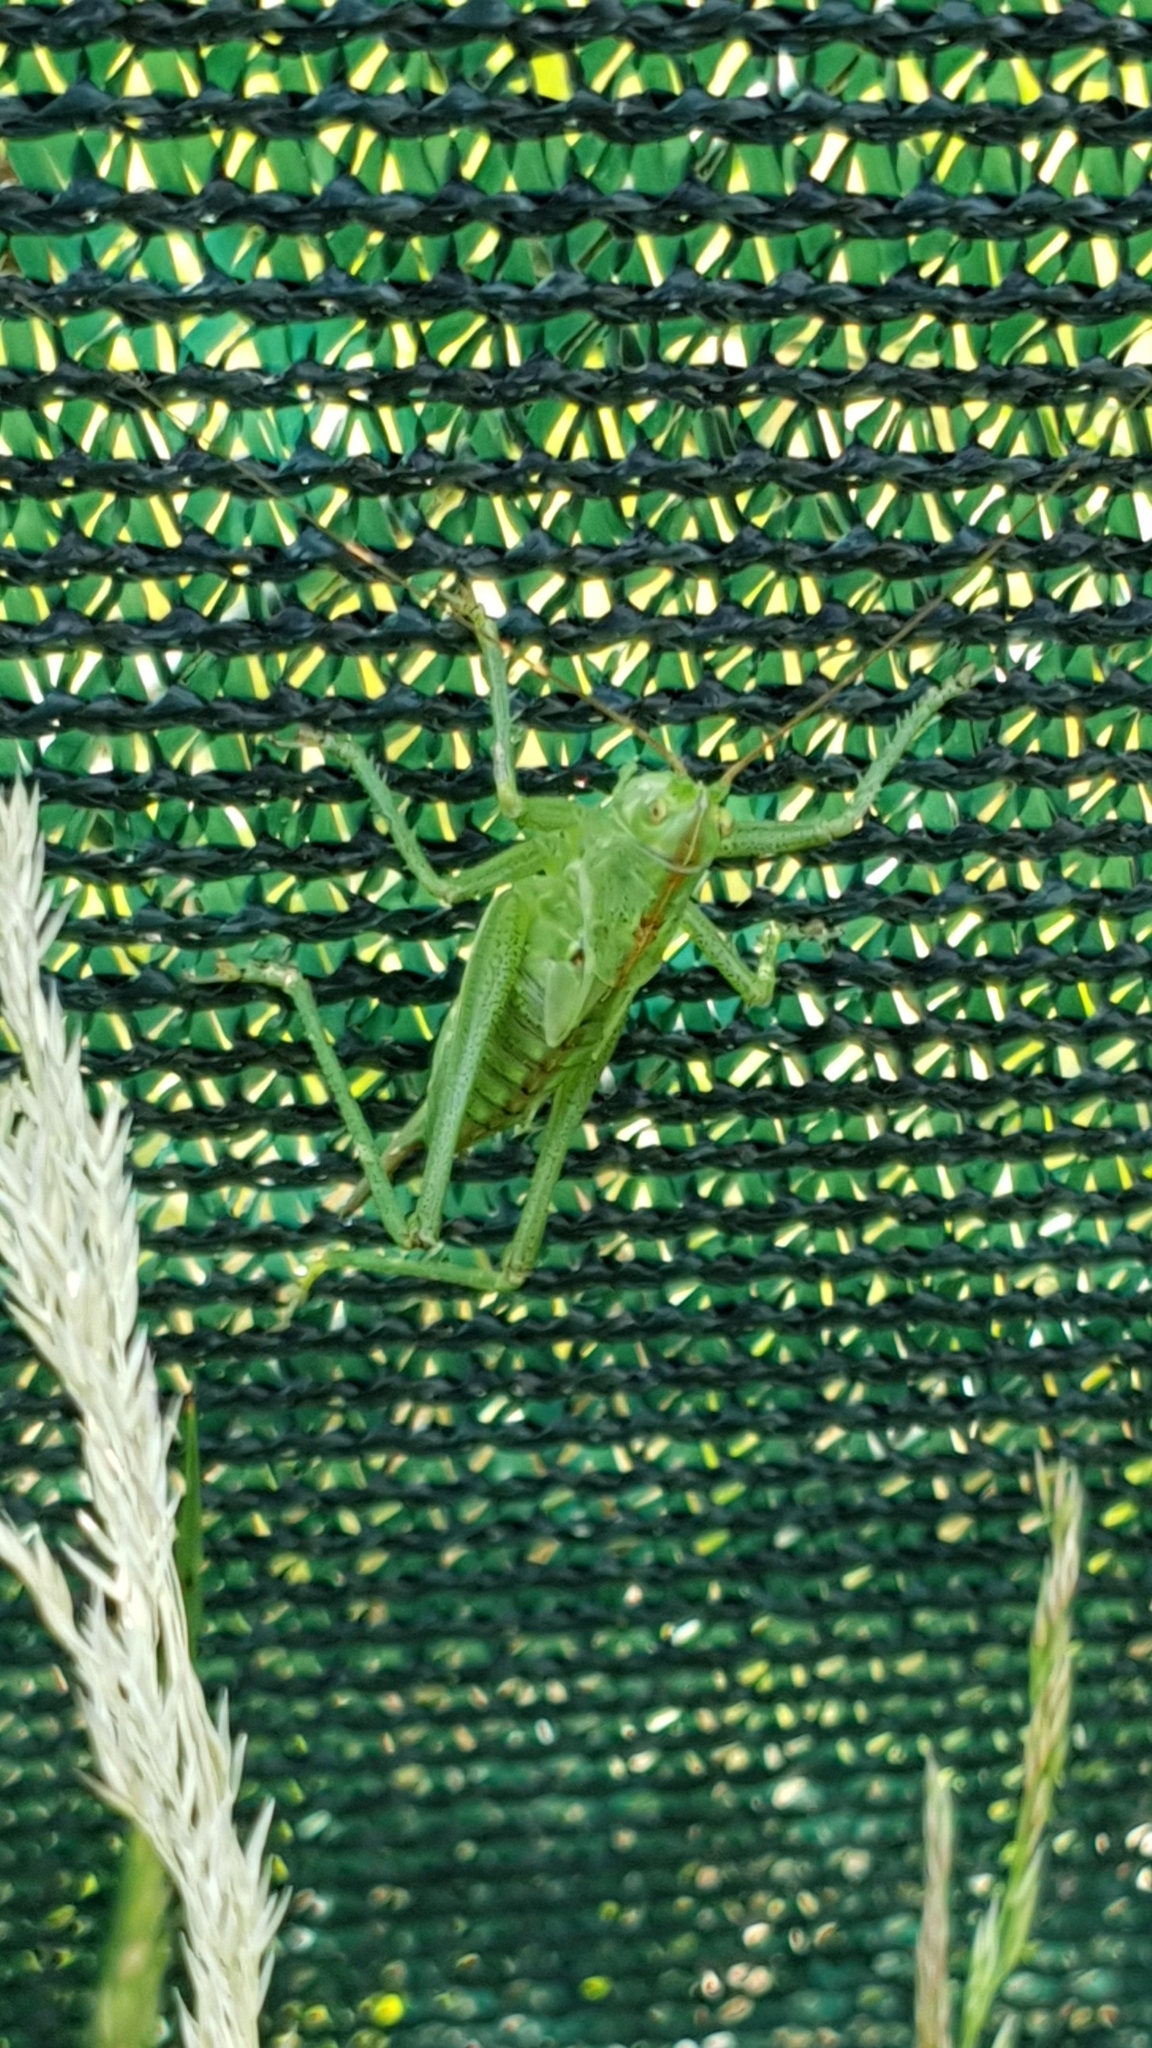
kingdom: Animalia
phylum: Arthropoda
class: Insecta
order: Orthoptera
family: Tettigoniidae
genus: Tettigonia
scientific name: Tettigonia viridissima
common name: Great green bush-cricket
